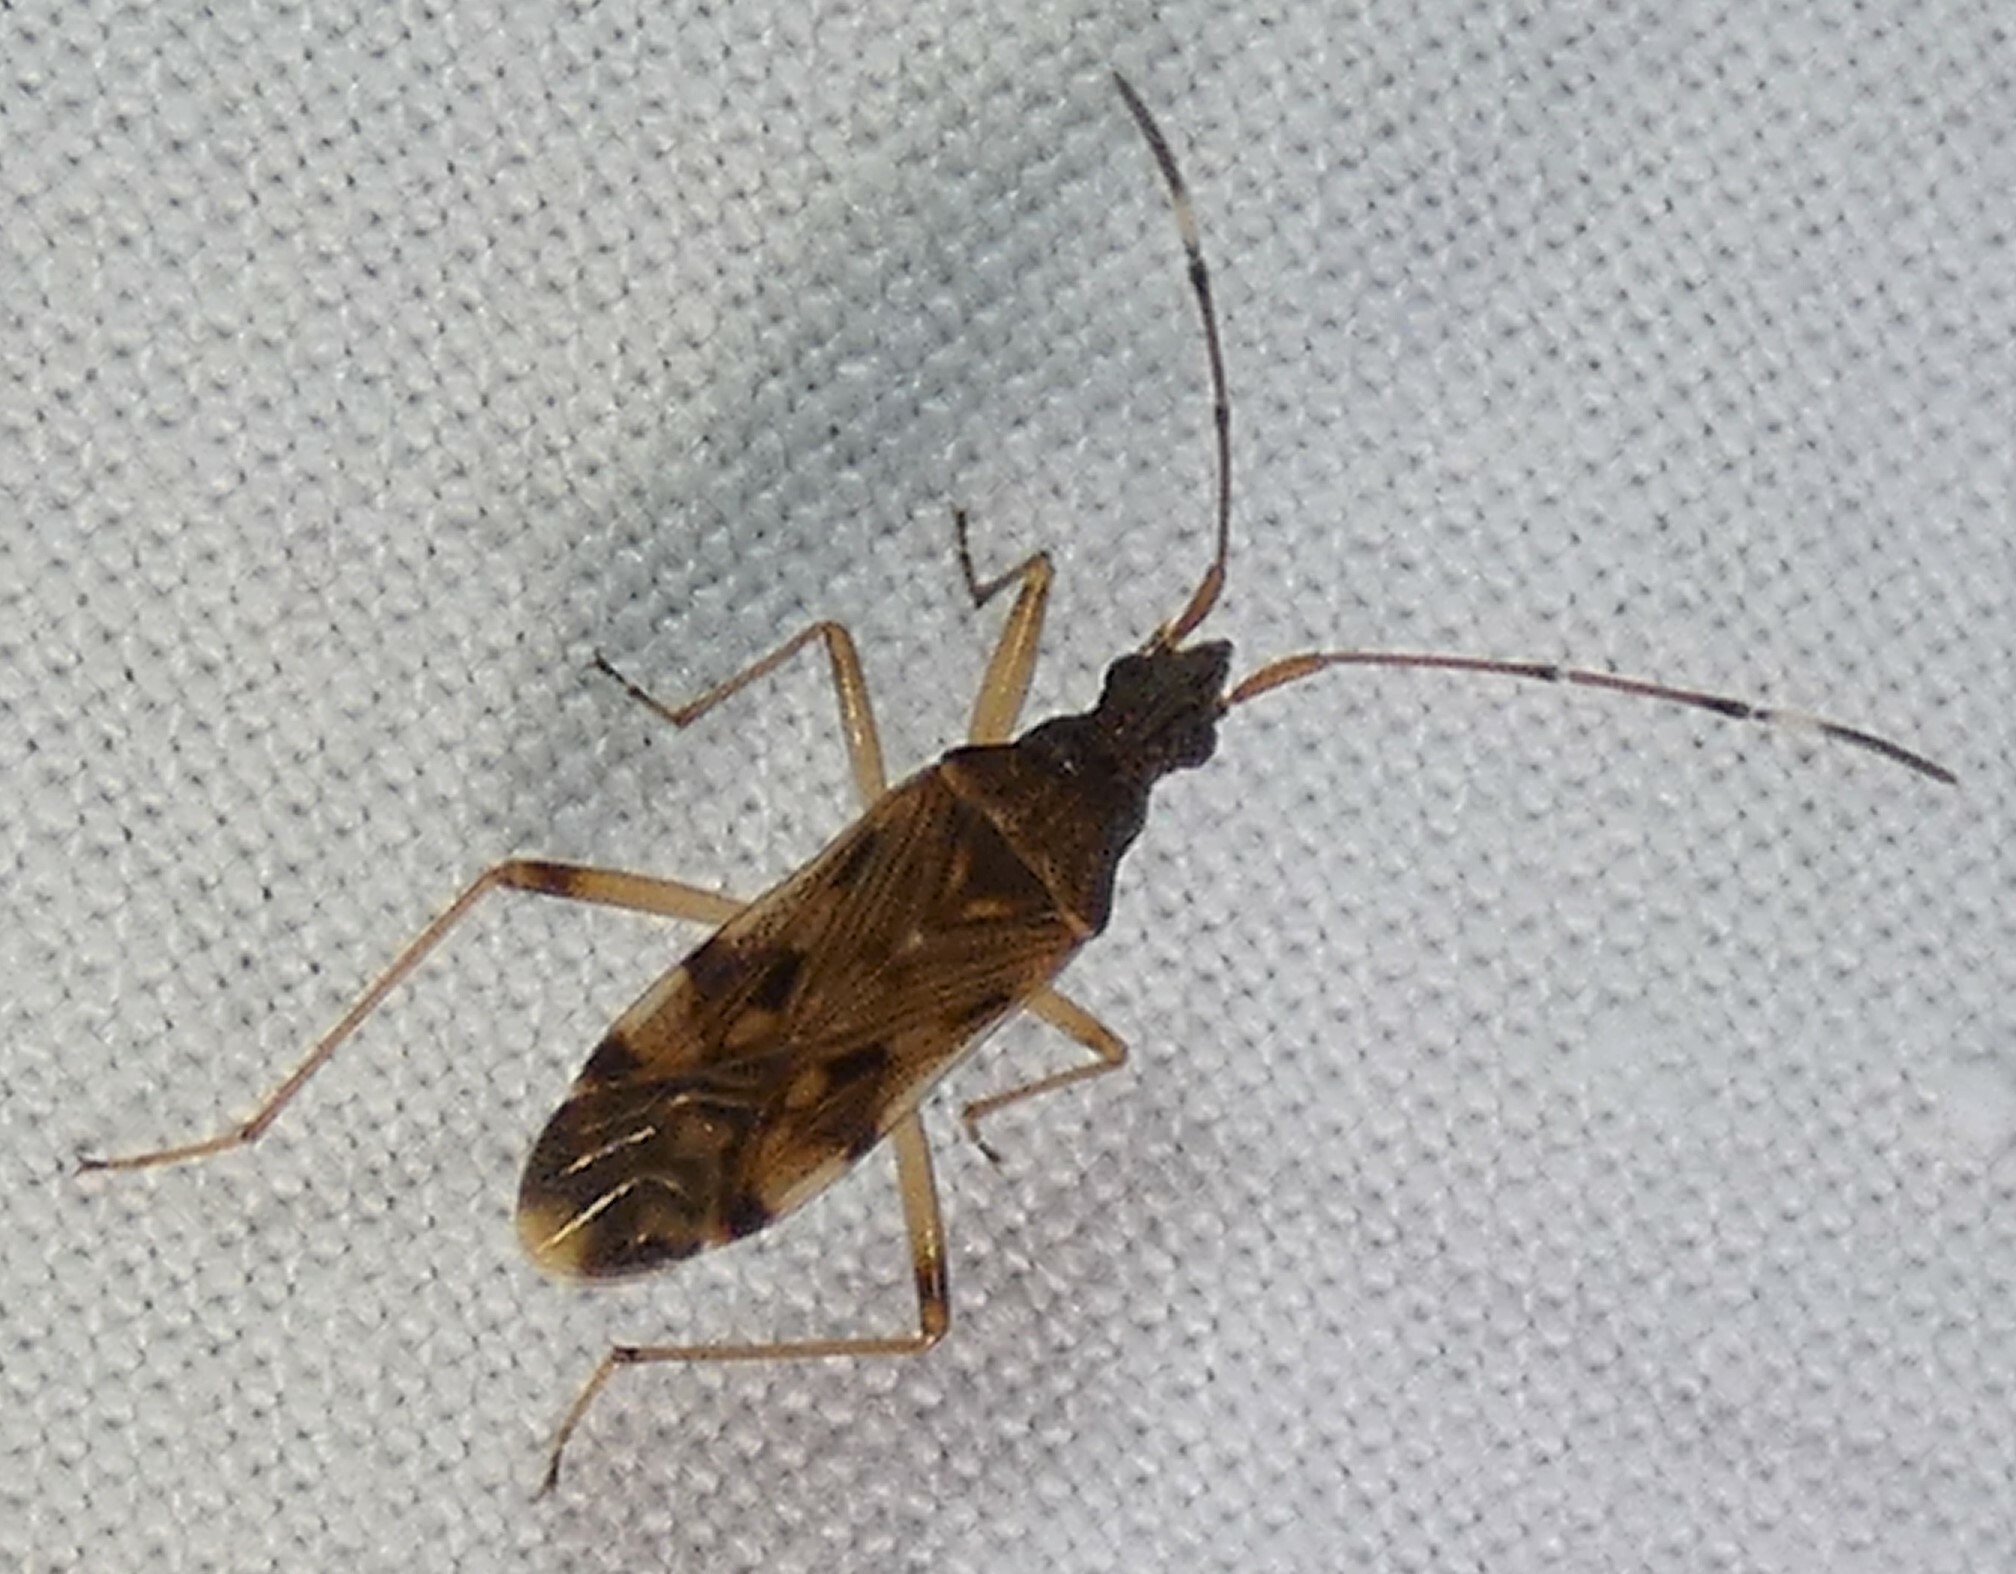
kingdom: Animalia
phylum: Arthropoda
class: Insecta
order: Hemiptera
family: Rhyparochromidae
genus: Ozophora
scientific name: Ozophora picturata
